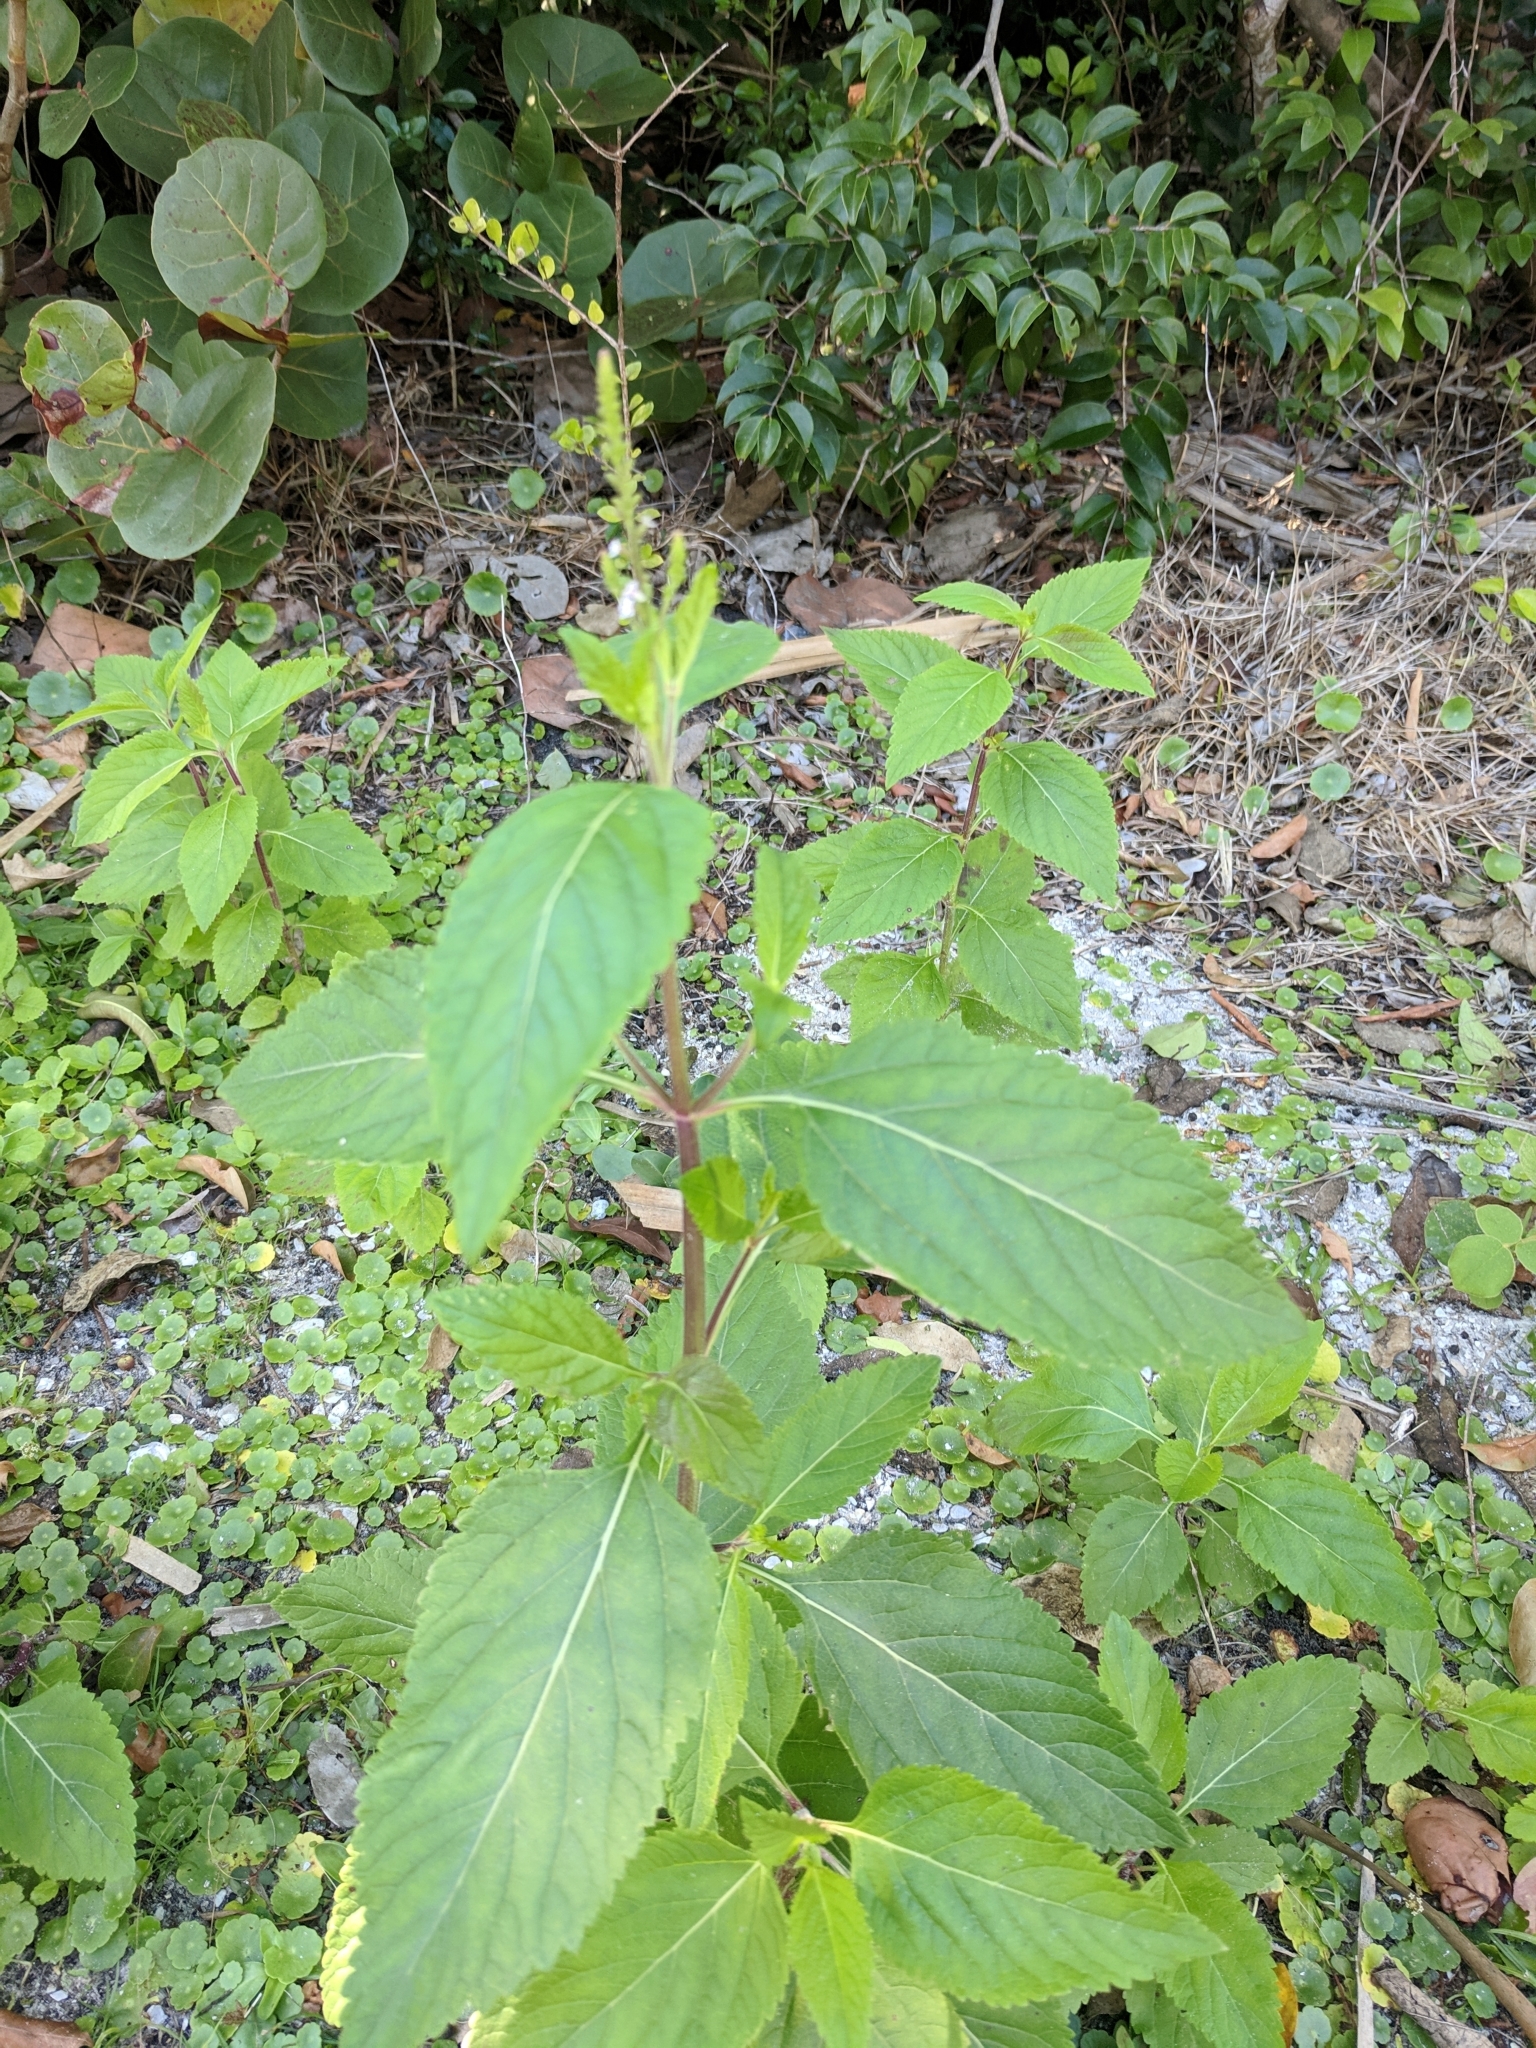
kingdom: Plantae
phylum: Tracheophyta
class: Magnoliopsida
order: Lamiales
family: Verbenaceae
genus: Verbena
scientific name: Verbena scabra
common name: Sandpaper vervain
